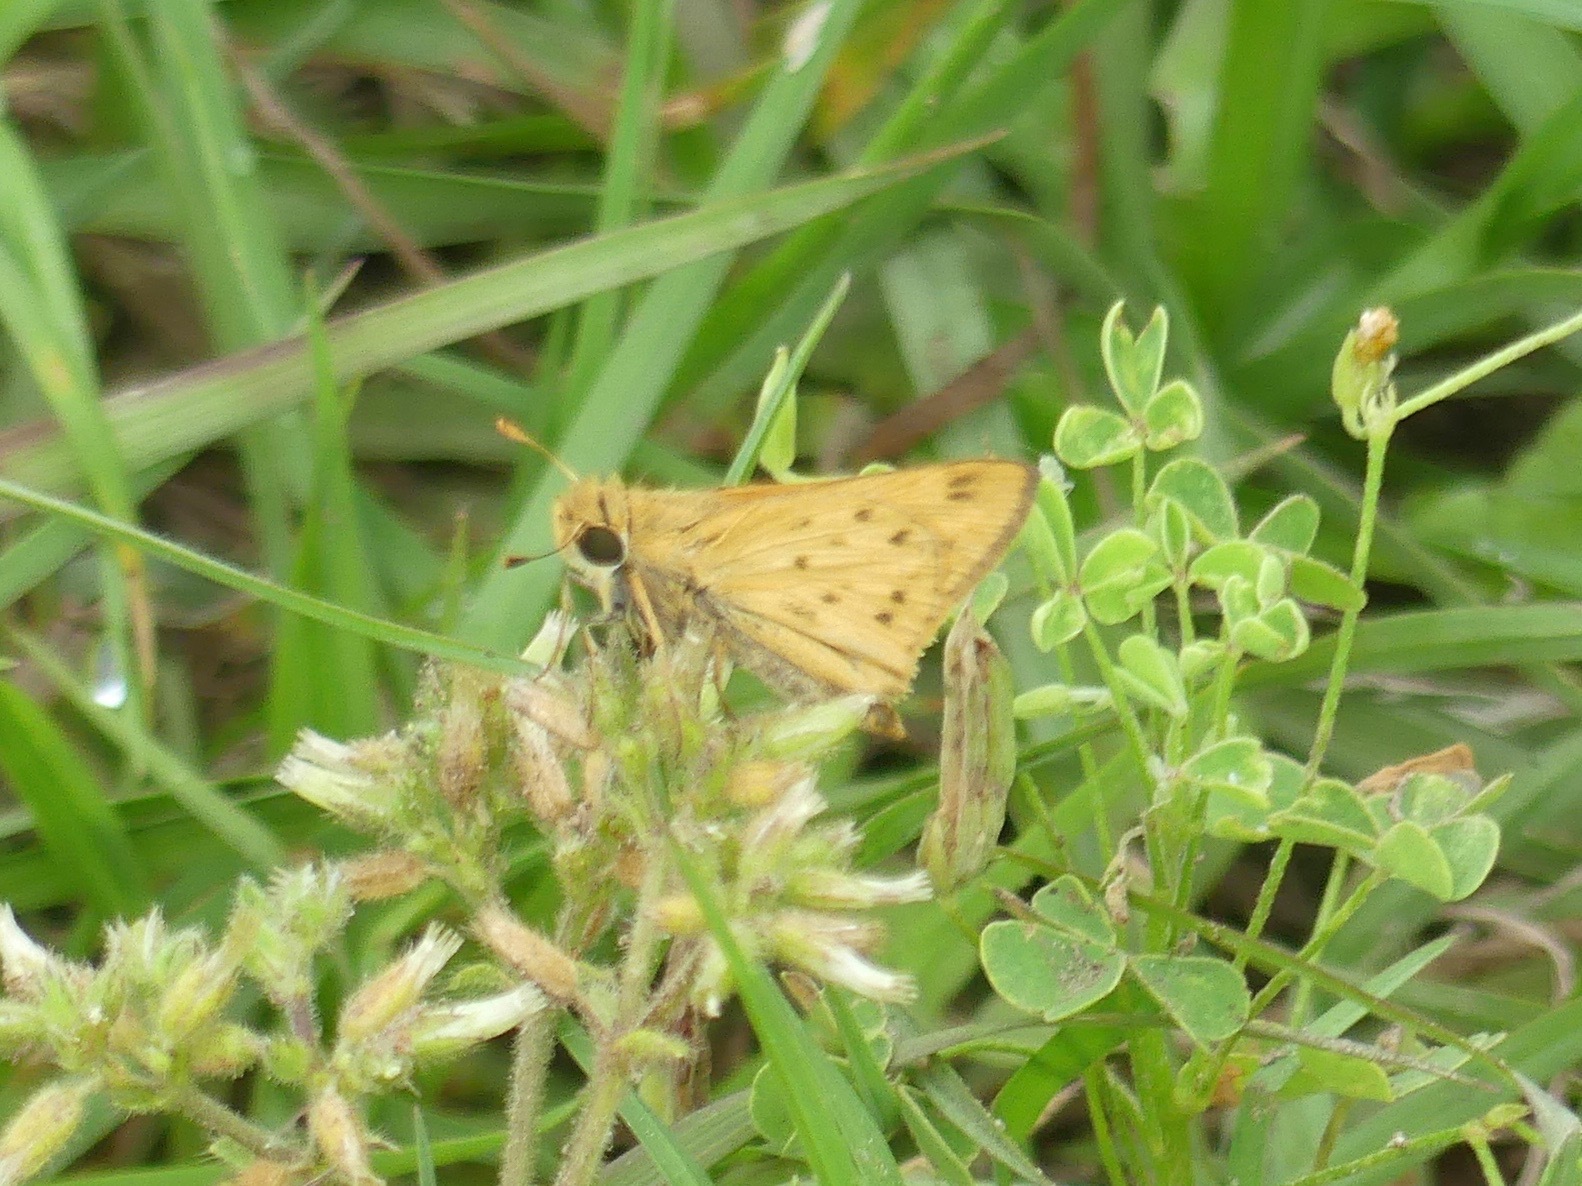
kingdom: Animalia
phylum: Arthropoda
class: Insecta
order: Lepidoptera
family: Hesperiidae
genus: Hylephila
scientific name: Hylephila phyleus
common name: Fiery skipper
